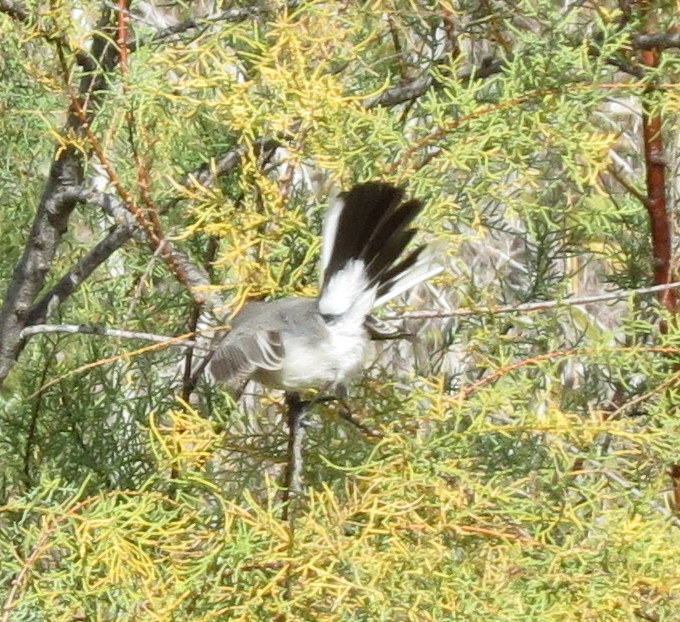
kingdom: Animalia
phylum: Chordata
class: Aves
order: Passeriformes
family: Polioptilidae
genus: Polioptila
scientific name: Polioptila caerulea
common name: Blue-gray gnatcatcher
